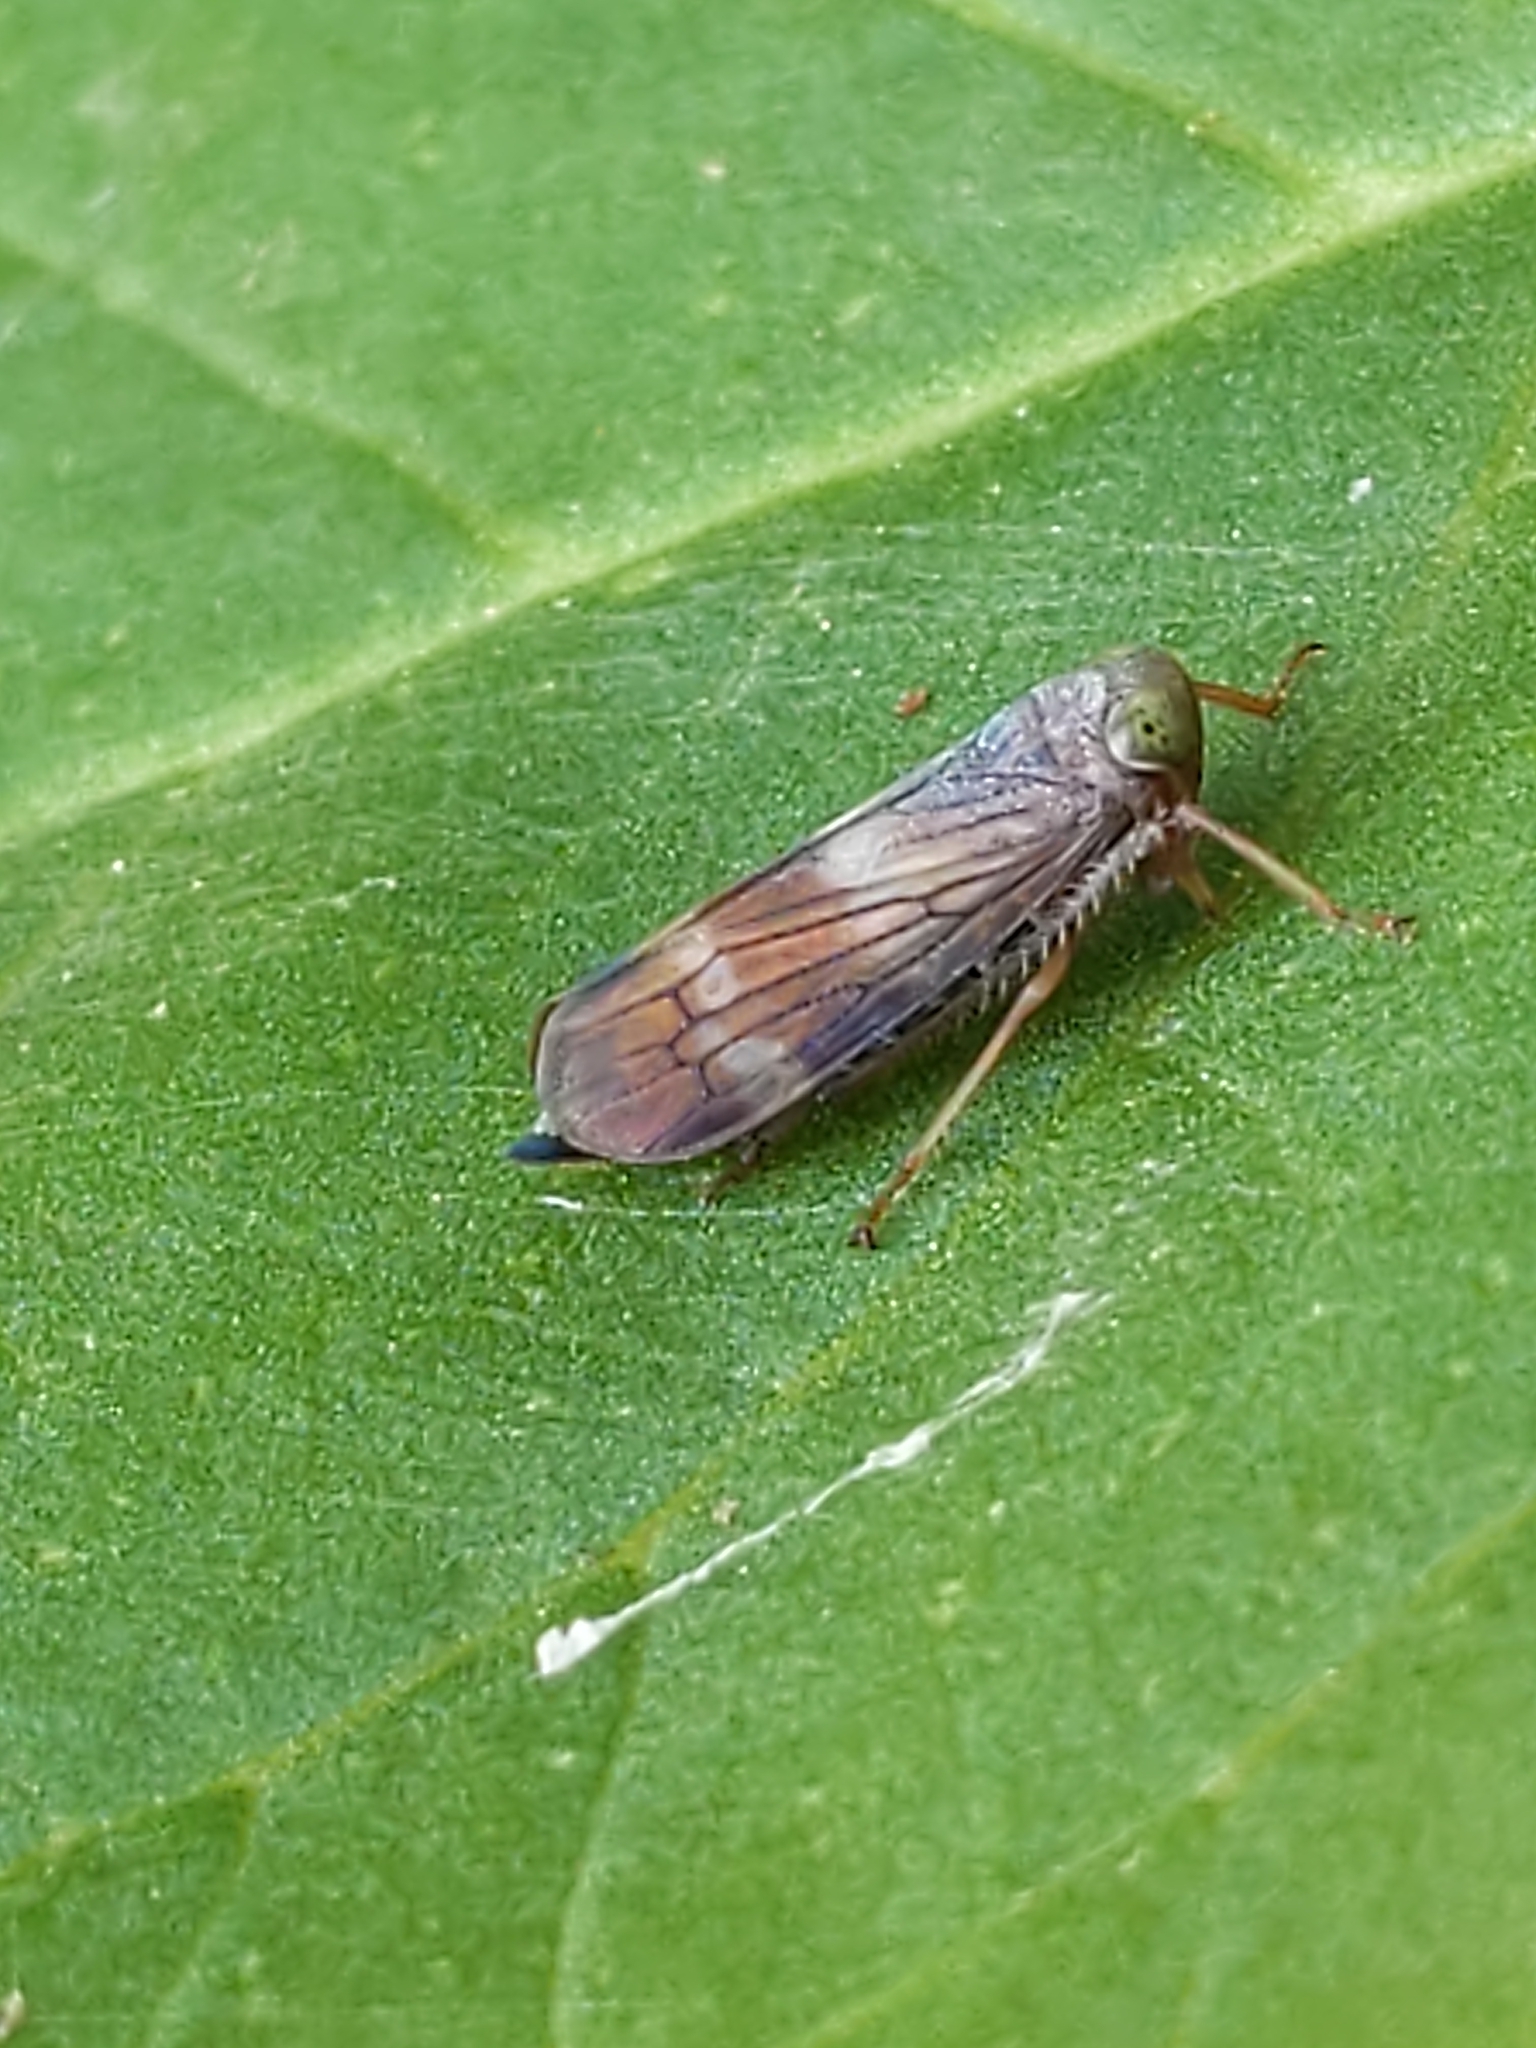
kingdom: Animalia
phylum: Arthropoda
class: Insecta
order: Hemiptera
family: Cicadellidae
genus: Jikradia
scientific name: Jikradia olitoria
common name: Coppery leafhopper
